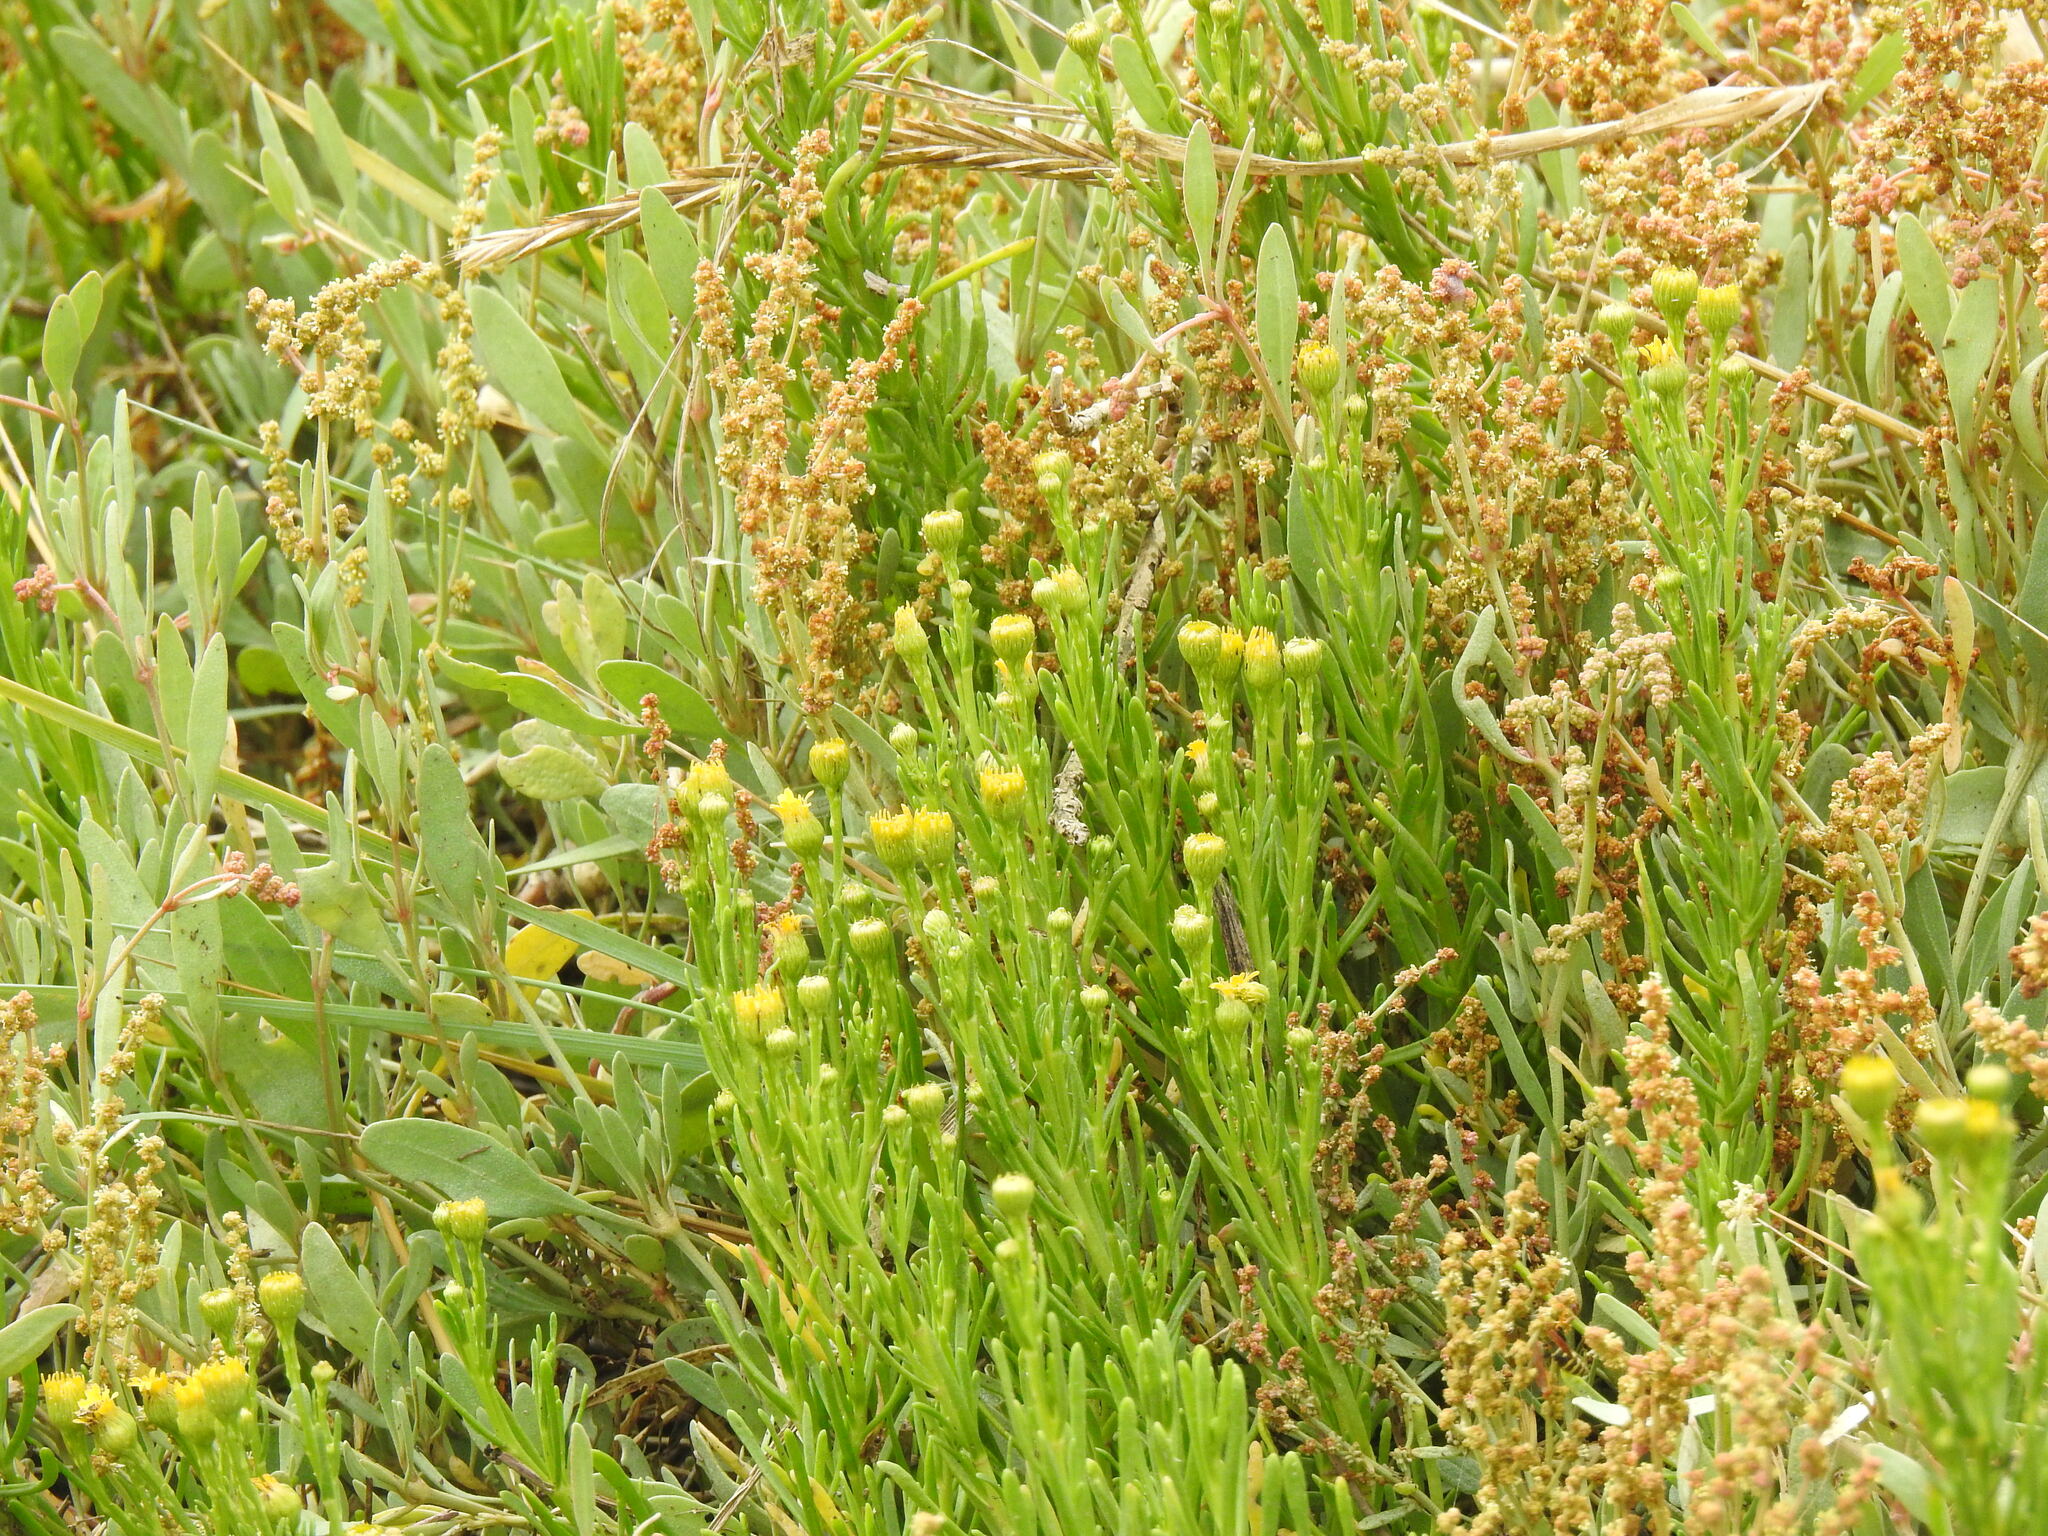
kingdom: Plantae
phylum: Tracheophyta
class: Magnoliopsida
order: Caryophyllales
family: Amaranthaceae
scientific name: Amaranthaceae
